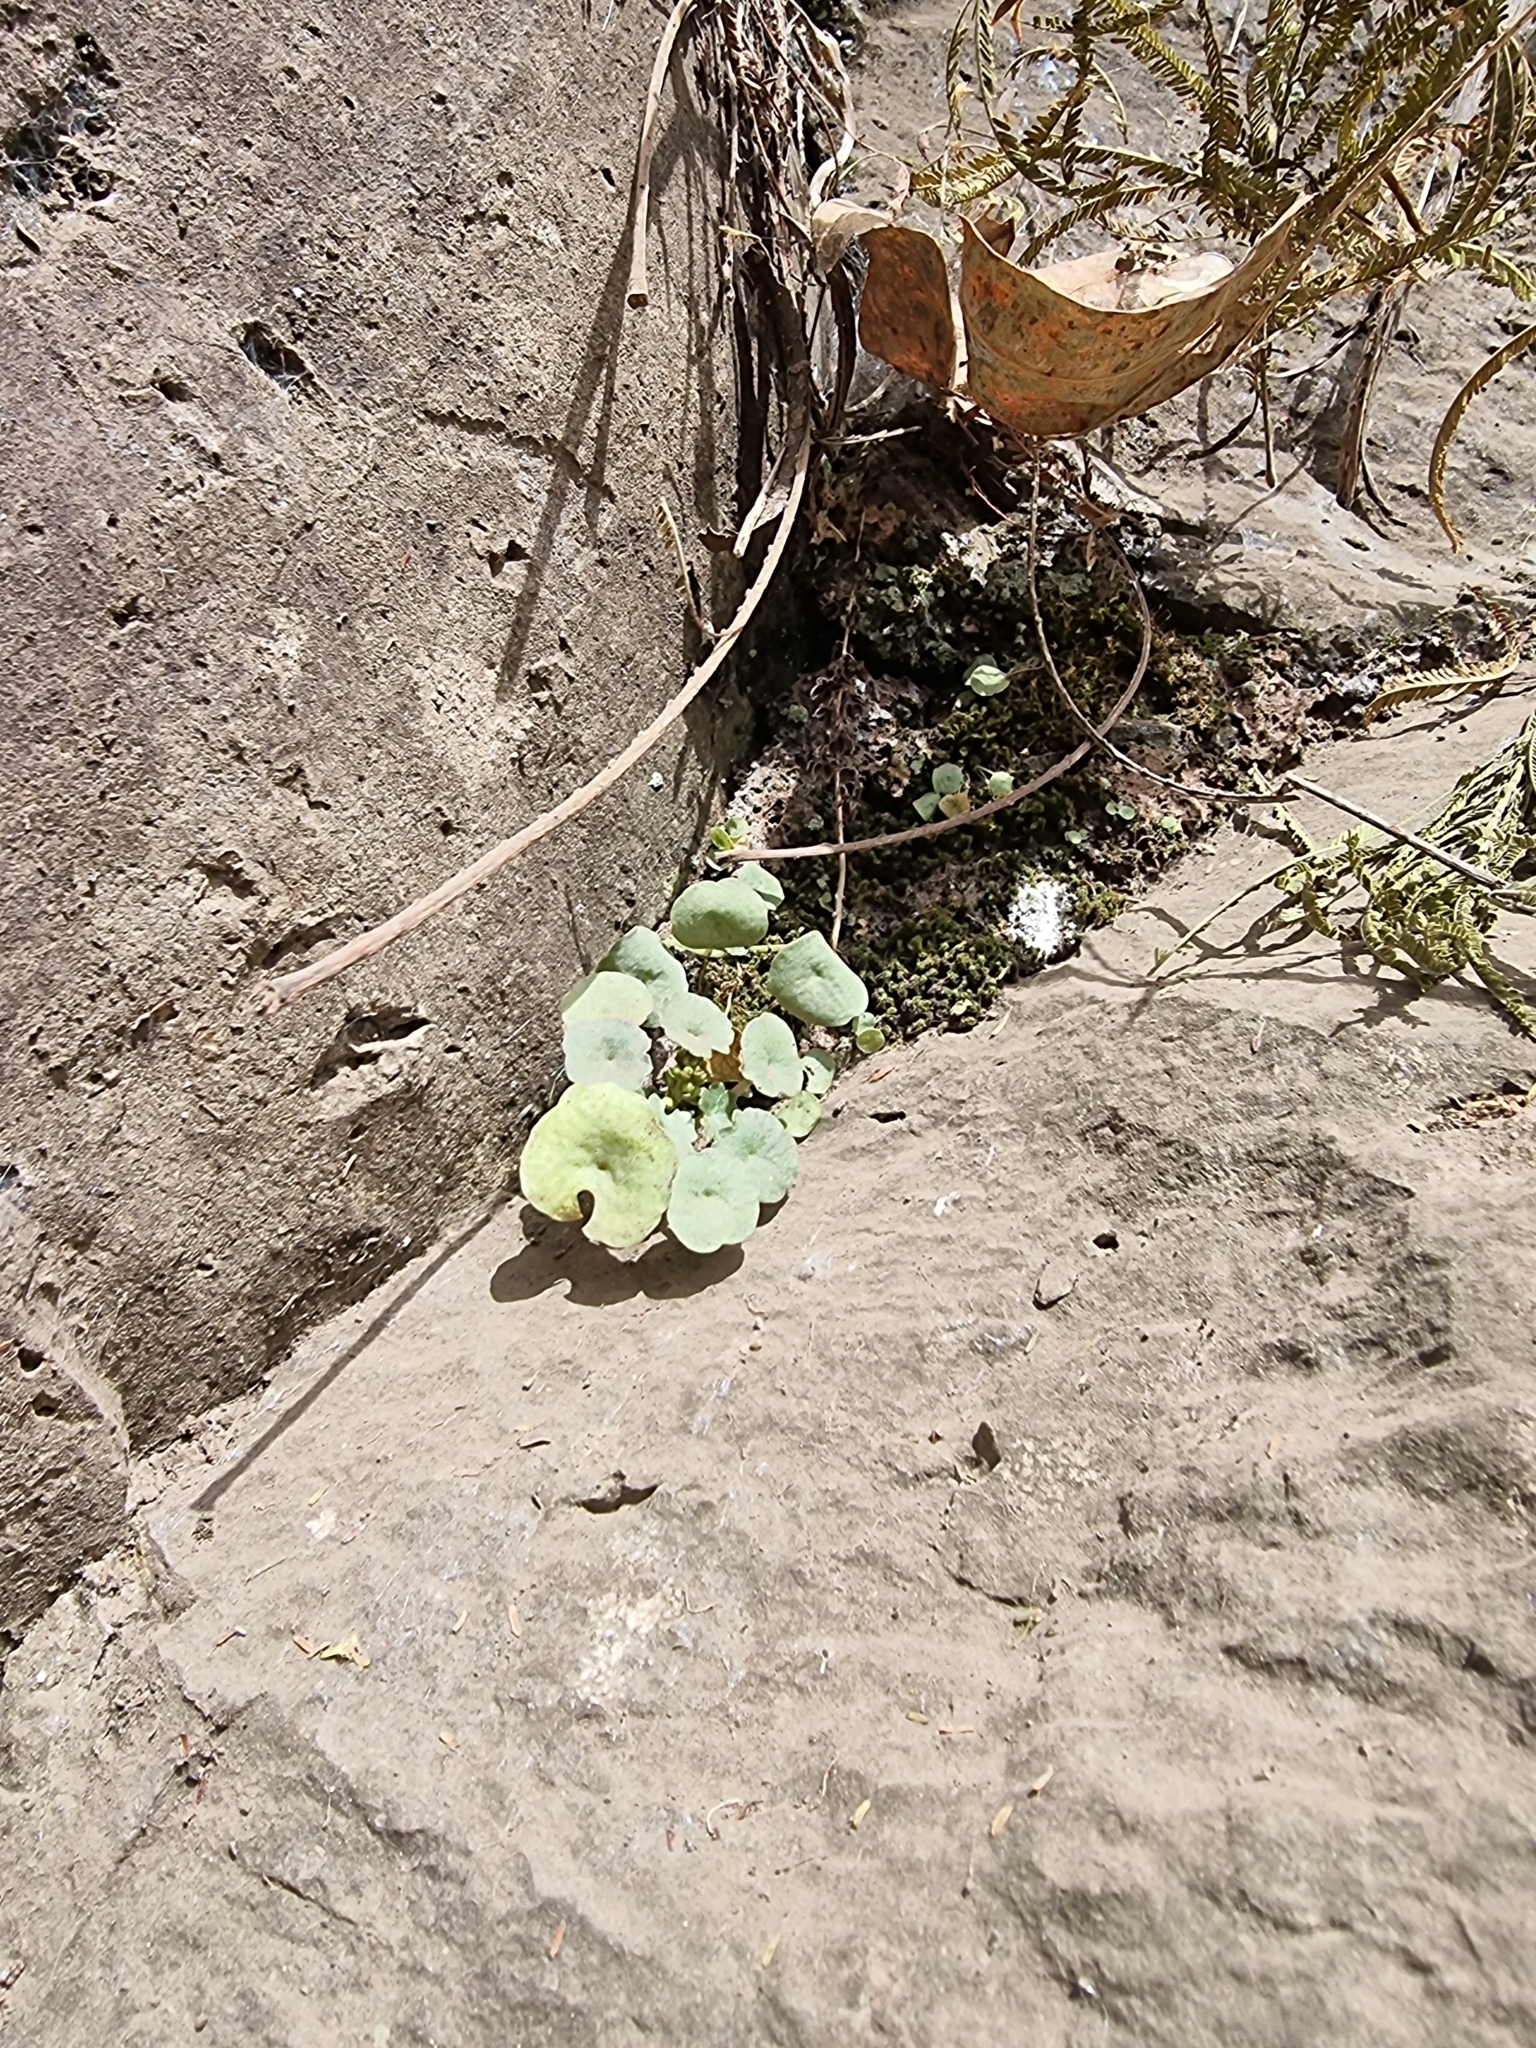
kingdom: Plantae
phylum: Tracheophyta
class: Magnoliopsida
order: Saxifragales
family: Crassulaceae
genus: Umbilicus
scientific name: Umbilicus rupestris
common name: Navelwort
